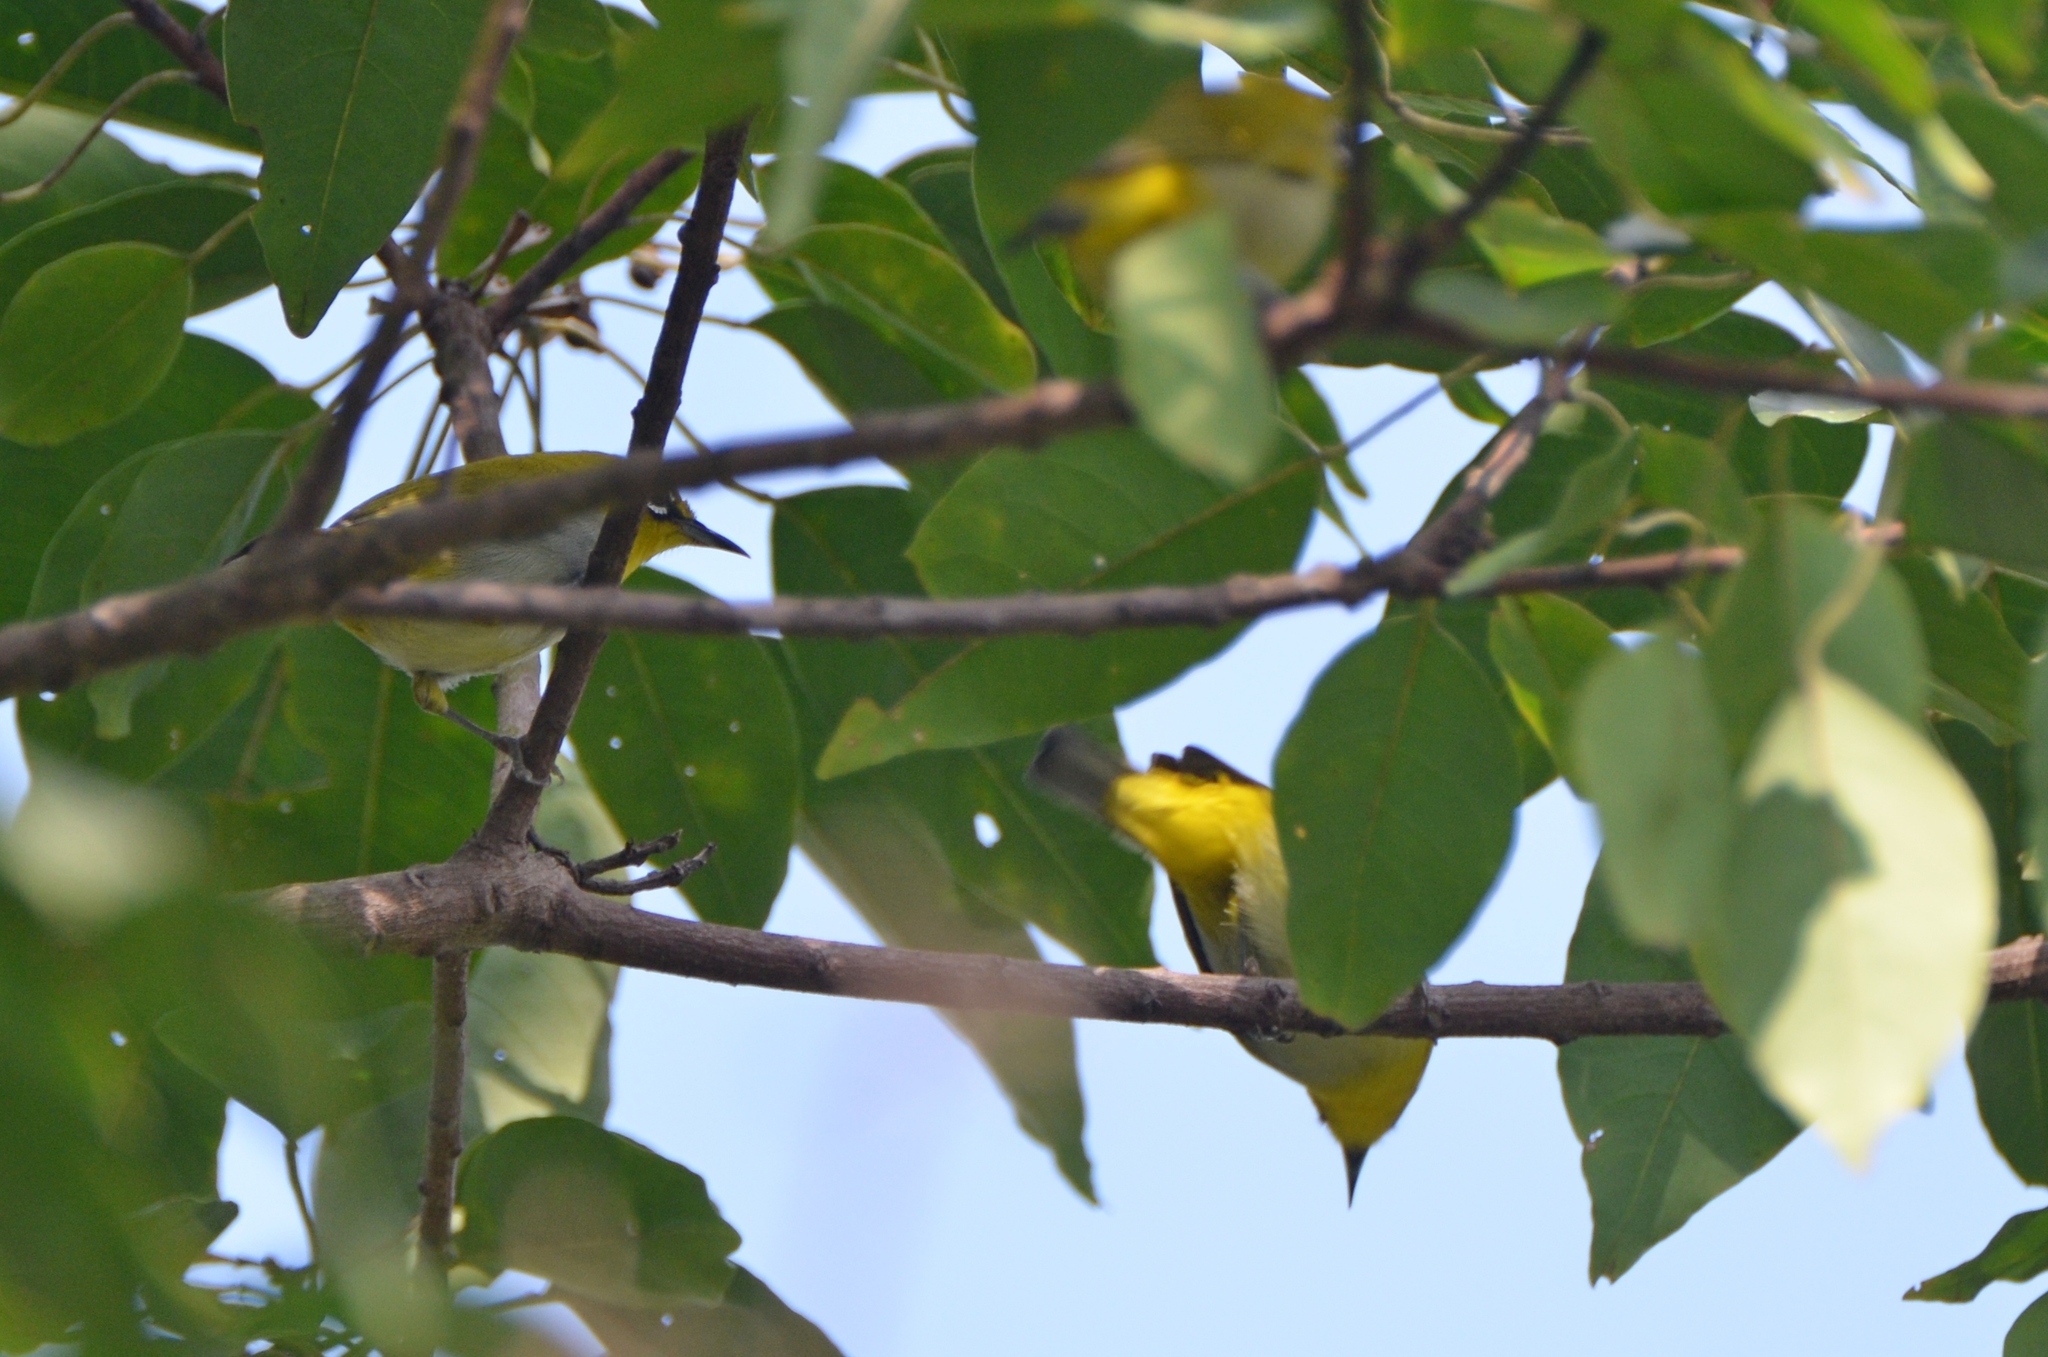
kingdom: Animalia
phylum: Chordata
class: Aves
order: Passeriformes
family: Zosteropidae
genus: Zosterops
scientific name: Zosterops simplex
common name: Swinhoe's white-eye
